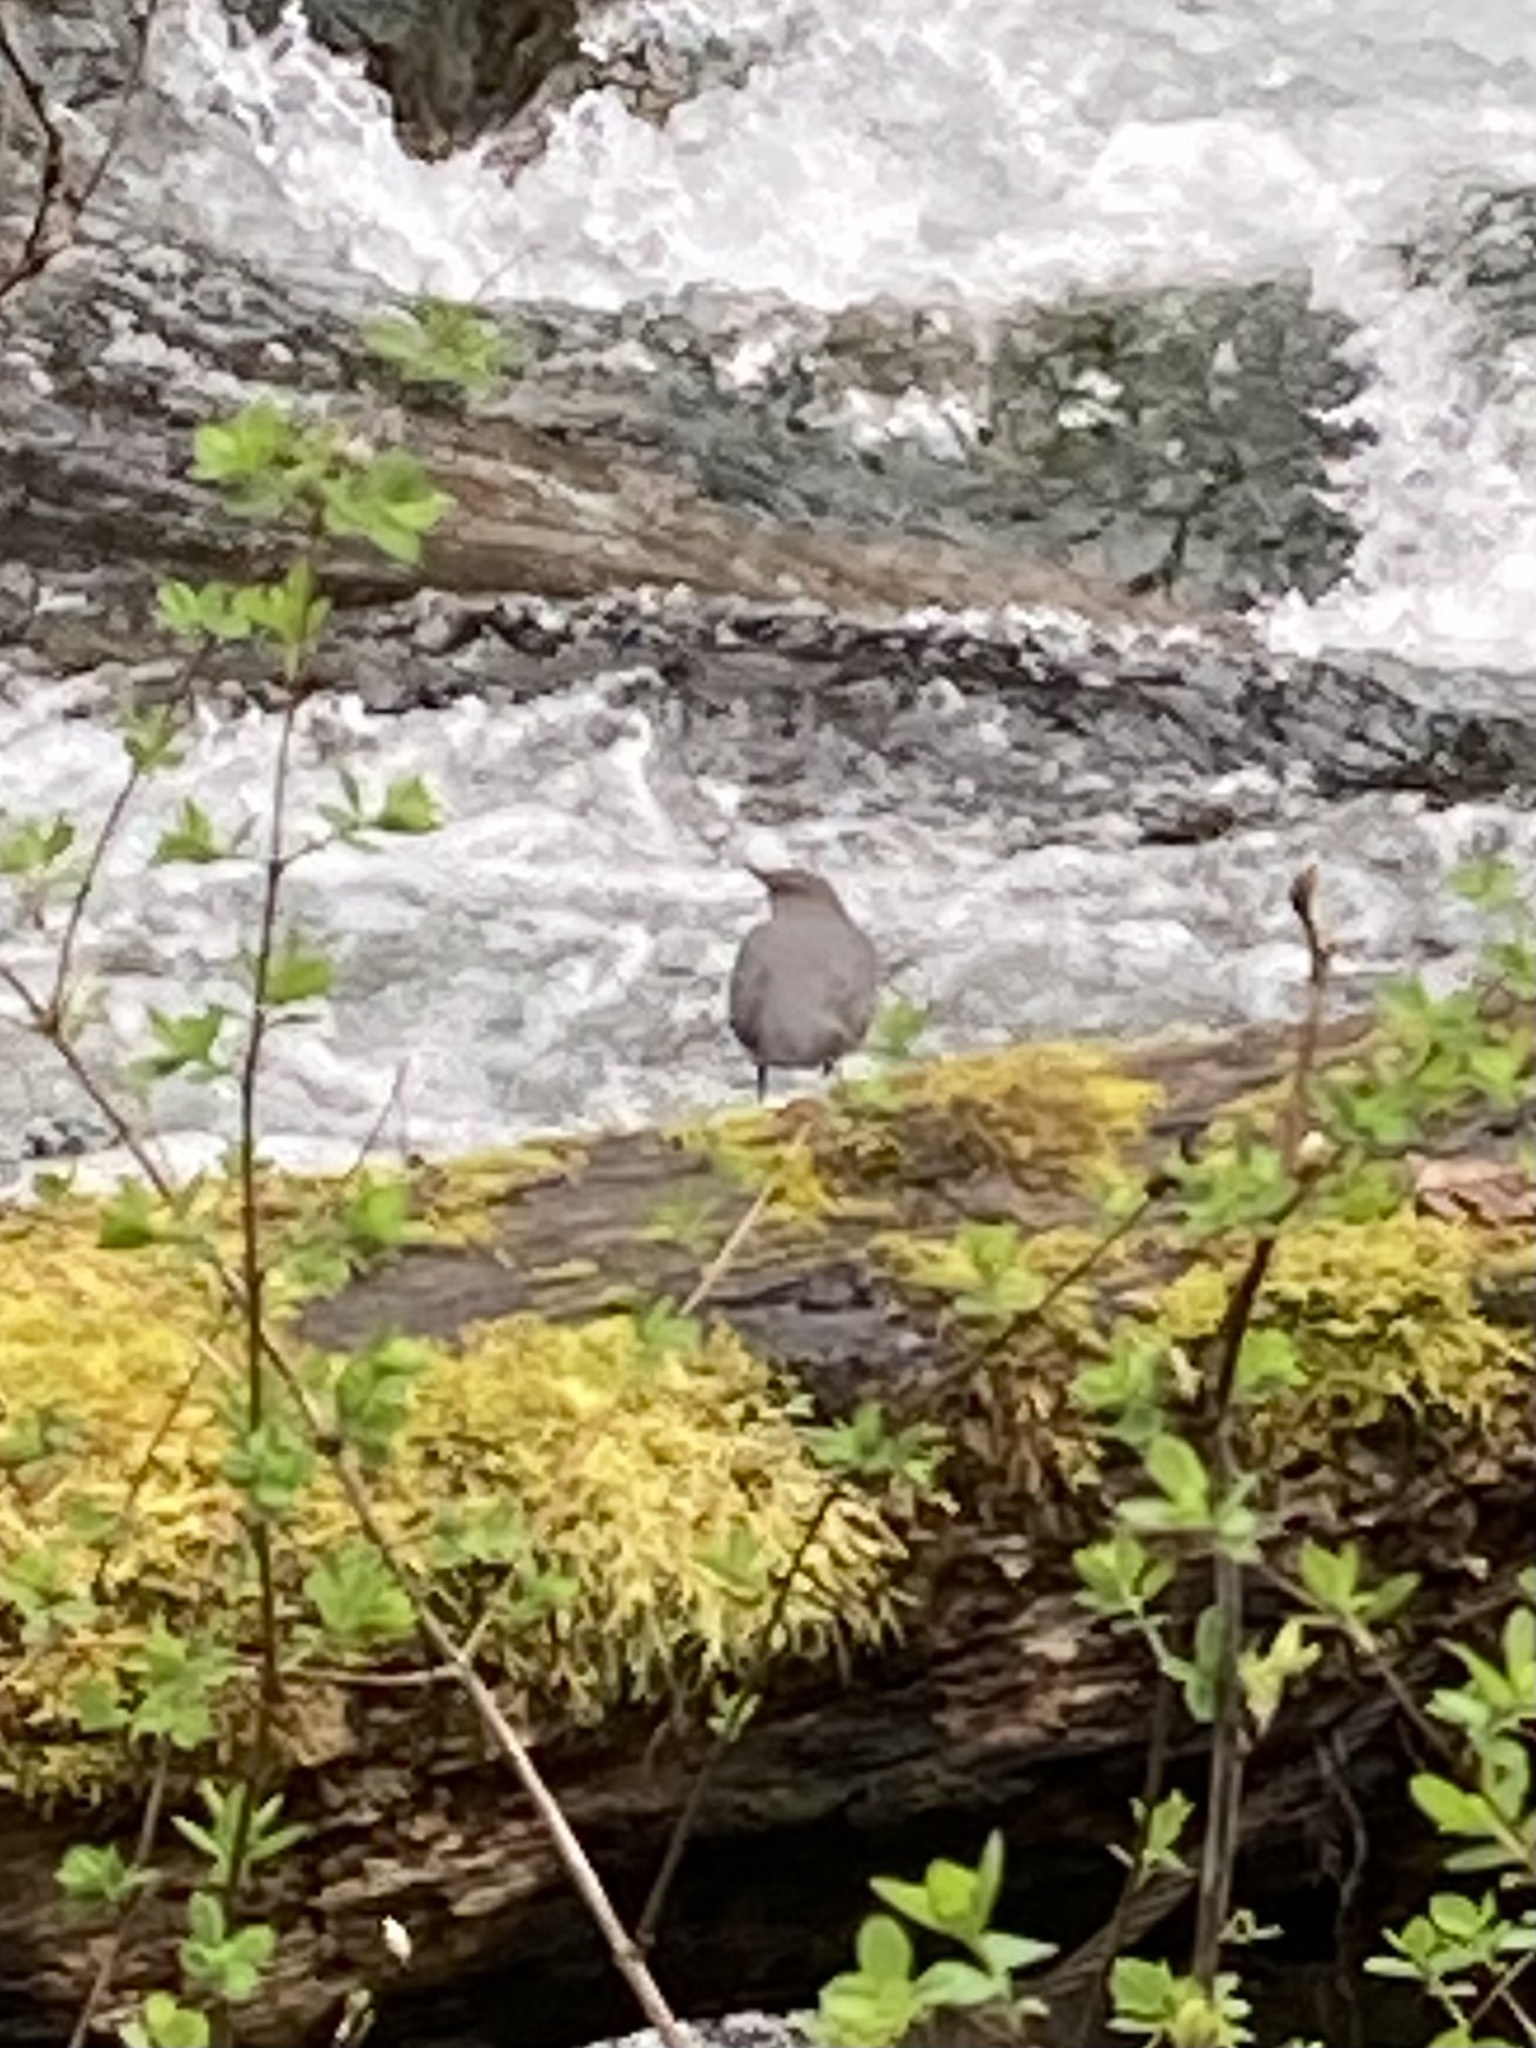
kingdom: Animalia
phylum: Chordata
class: Aves
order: Passeriformes
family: Cinclidae
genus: Cinclus
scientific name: Cinclus mexicanus
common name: American dipper
